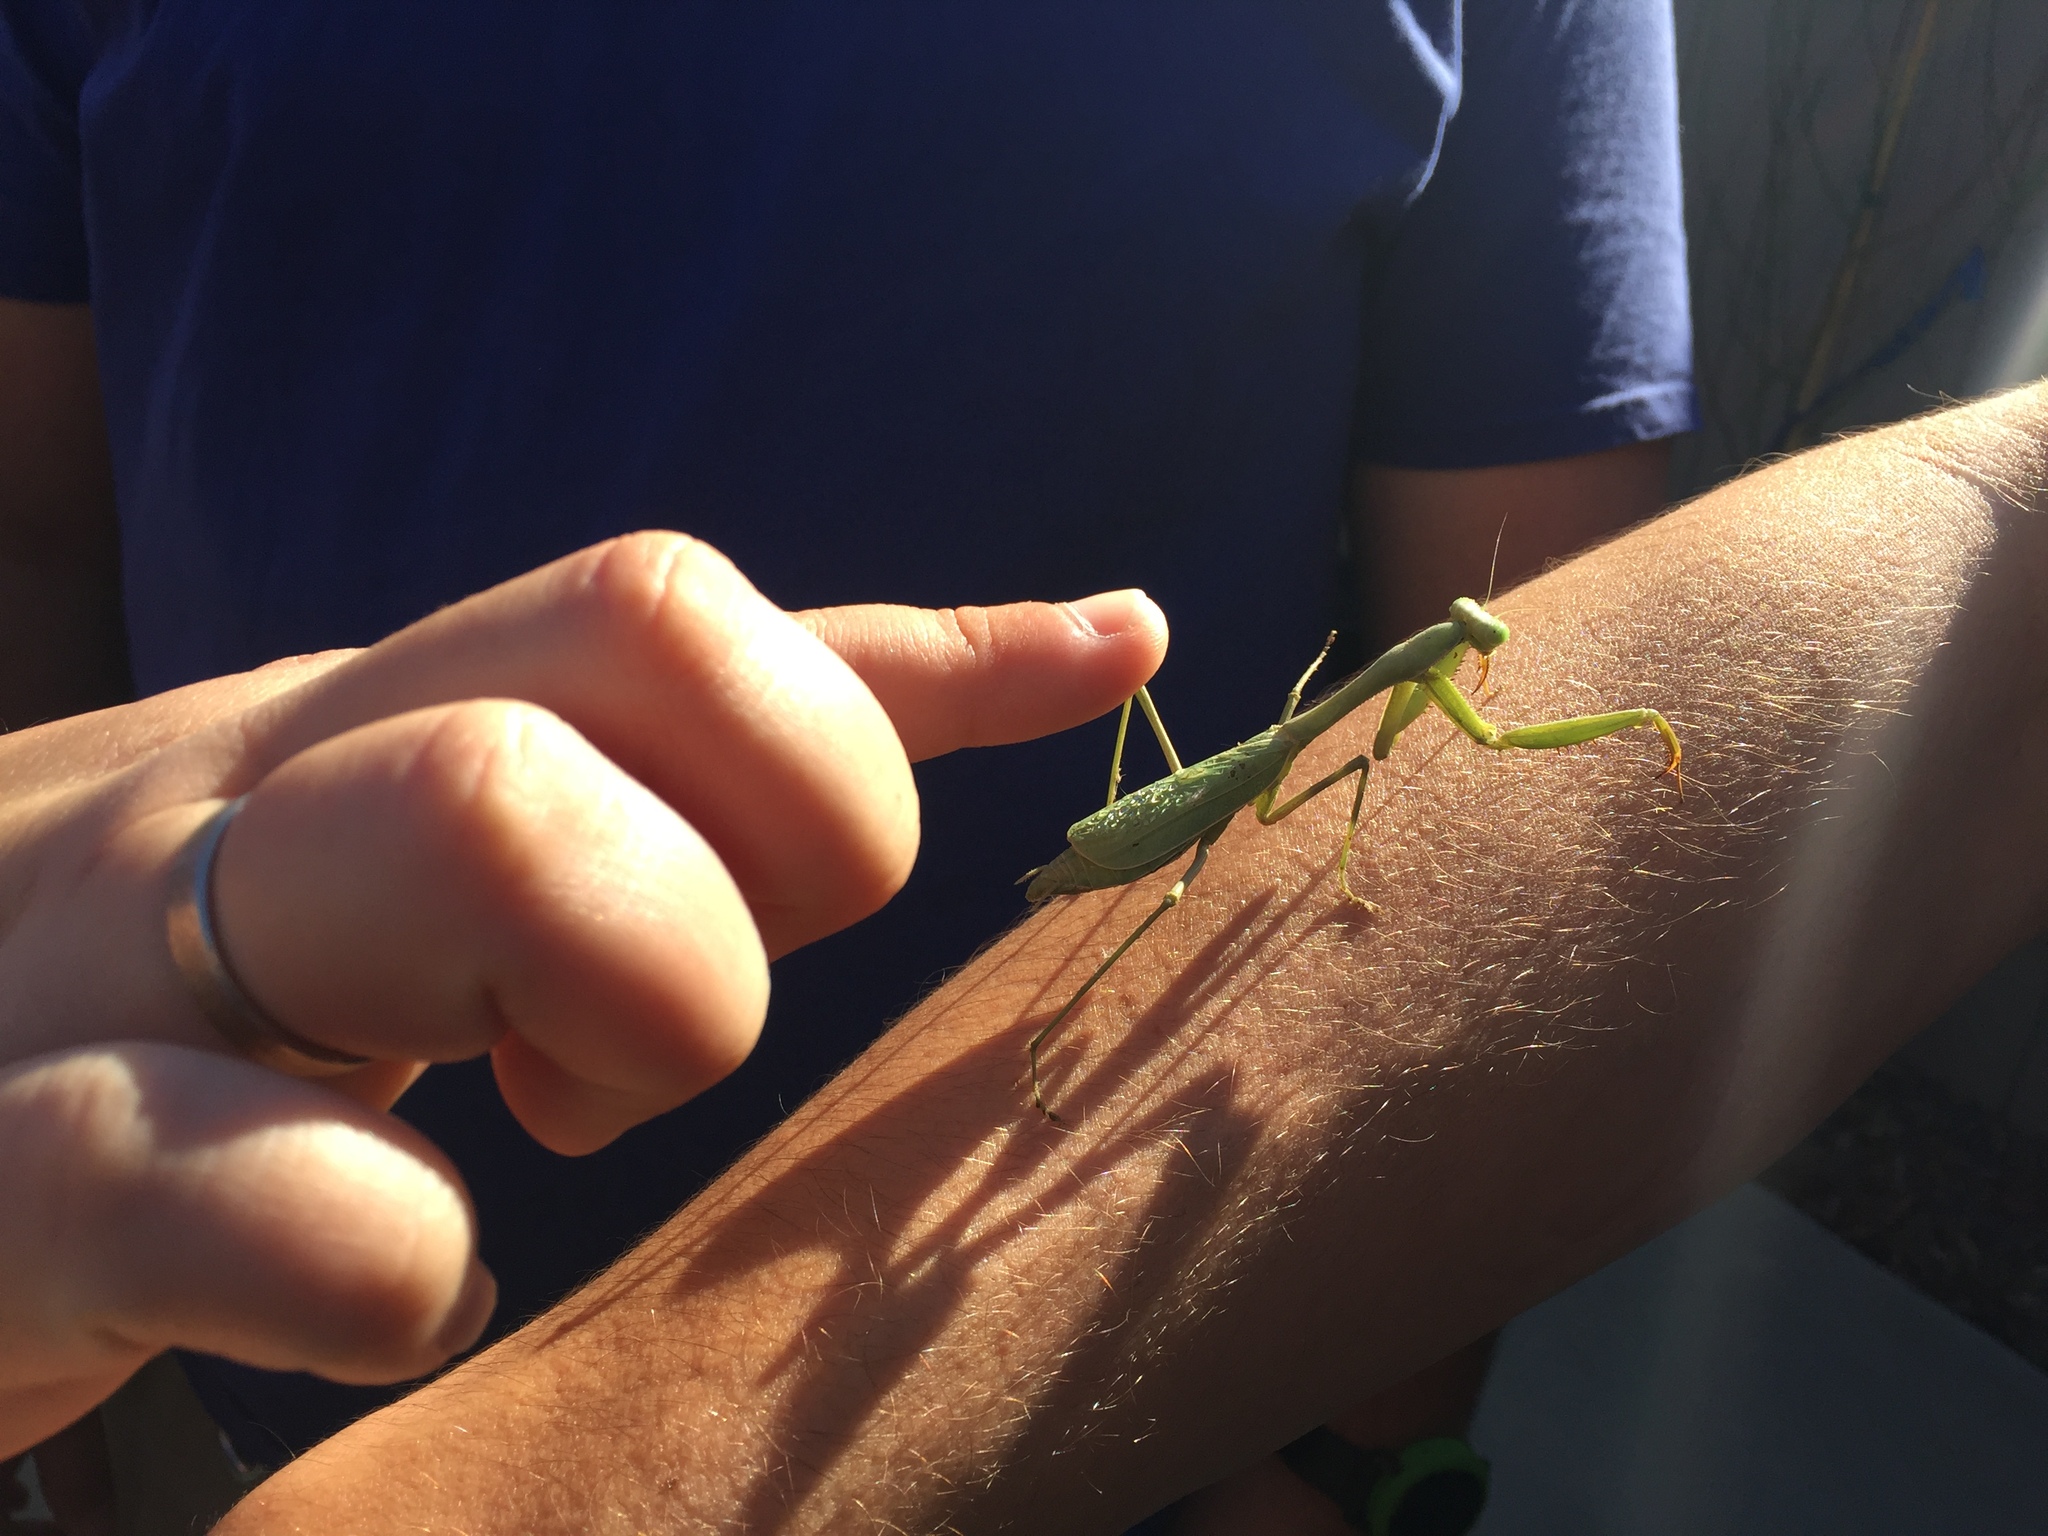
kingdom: Animalia
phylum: Arthropoda
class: Insecta
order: Mantodea
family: Mantidae
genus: Stagmomantis
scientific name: Stagmomantis limbata
